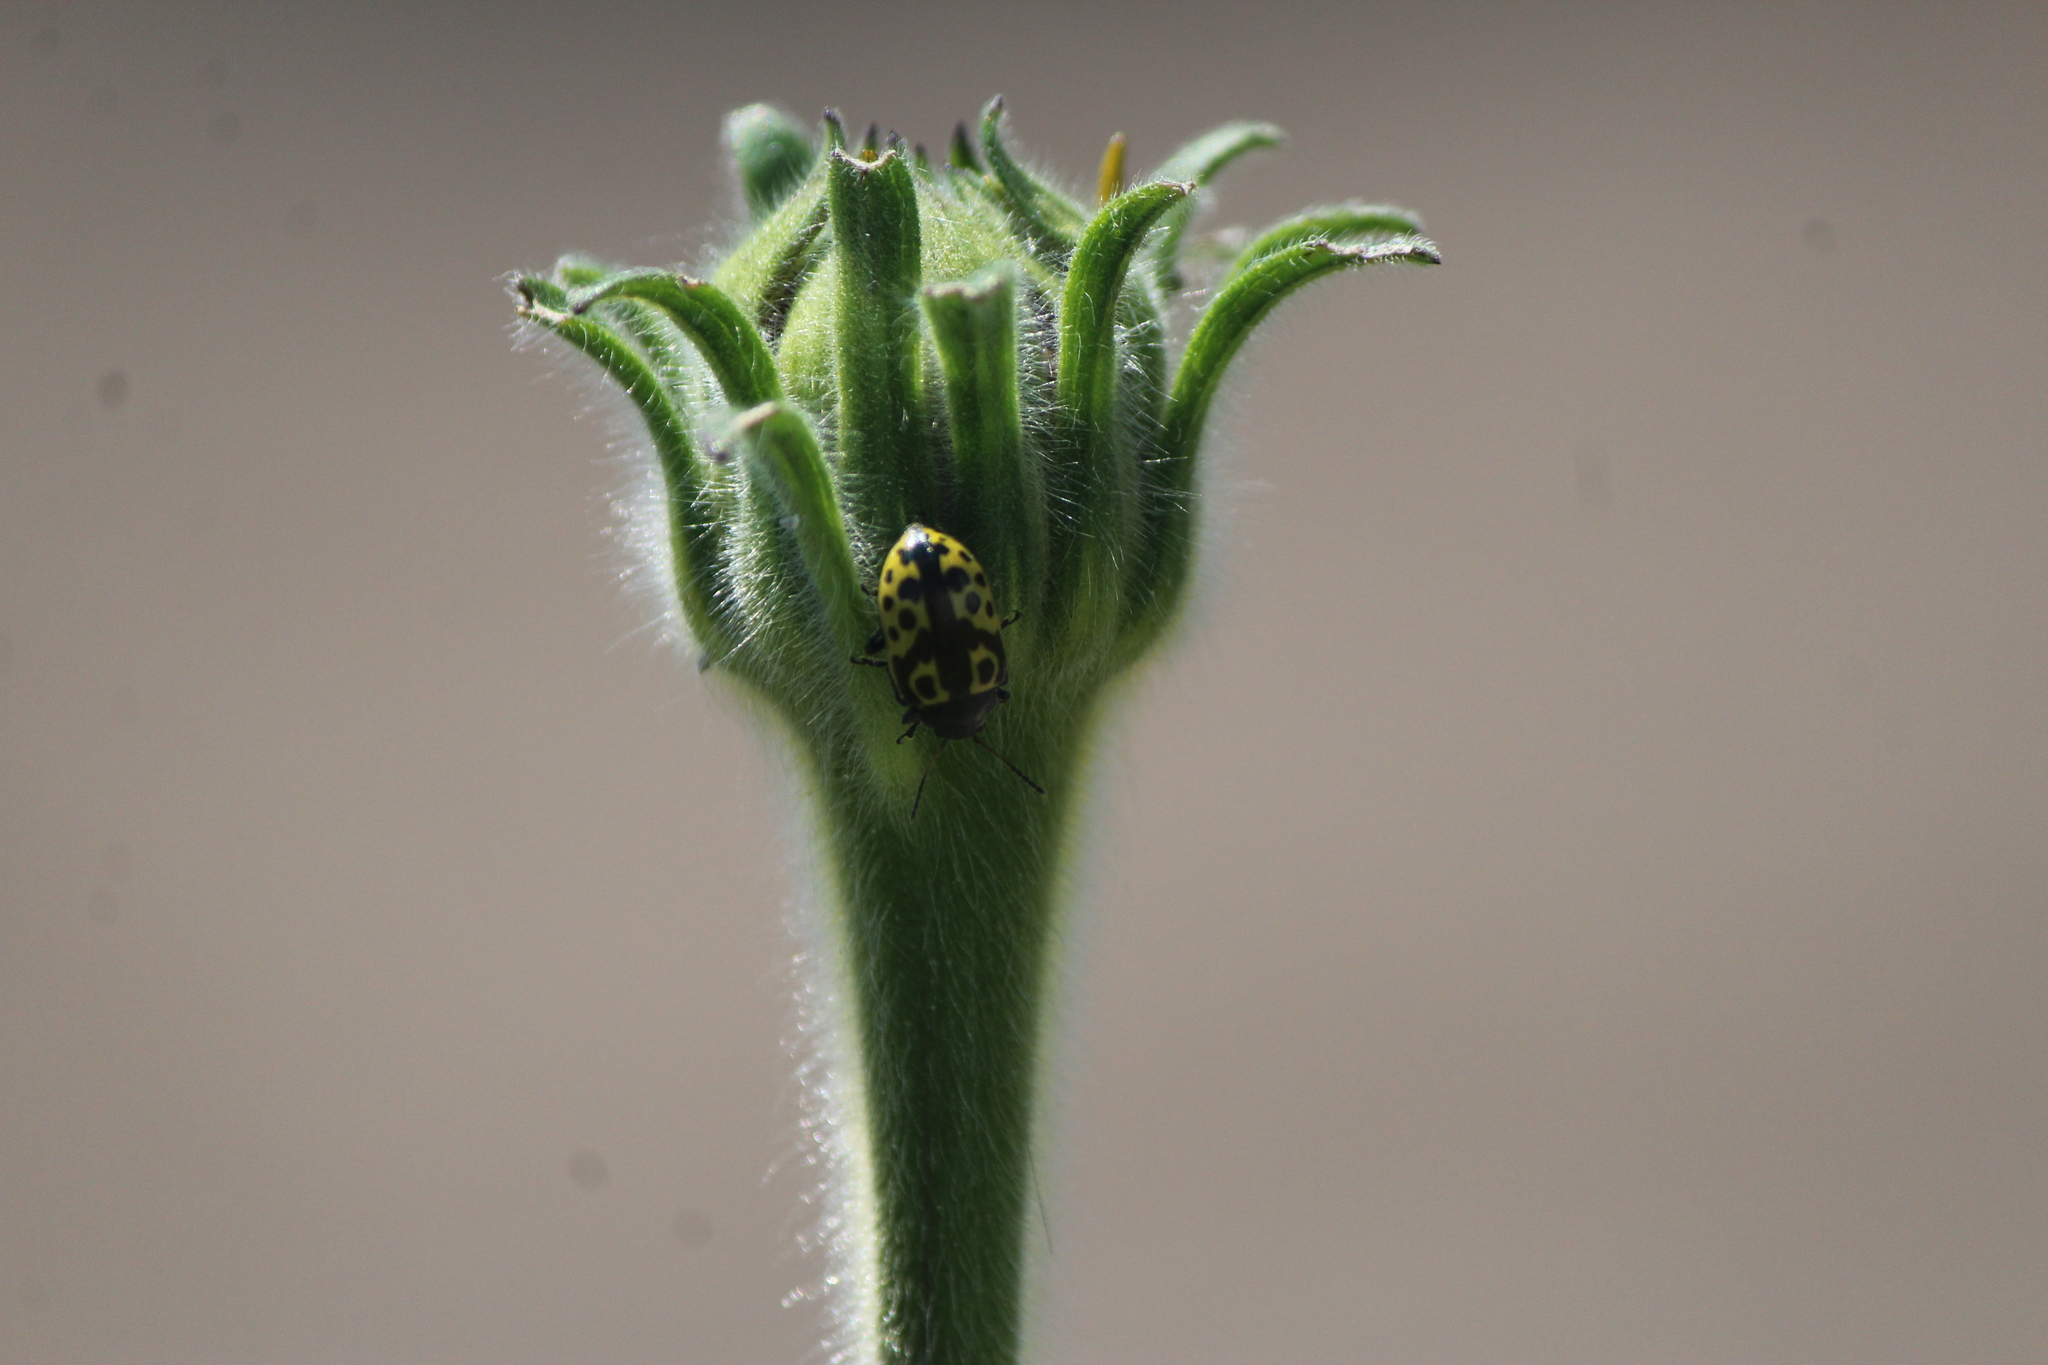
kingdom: Animalia
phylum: Arthropoda
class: Insecta
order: Coleoptera
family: Chrysomelidae
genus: Calligrapha
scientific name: Calligrapha
